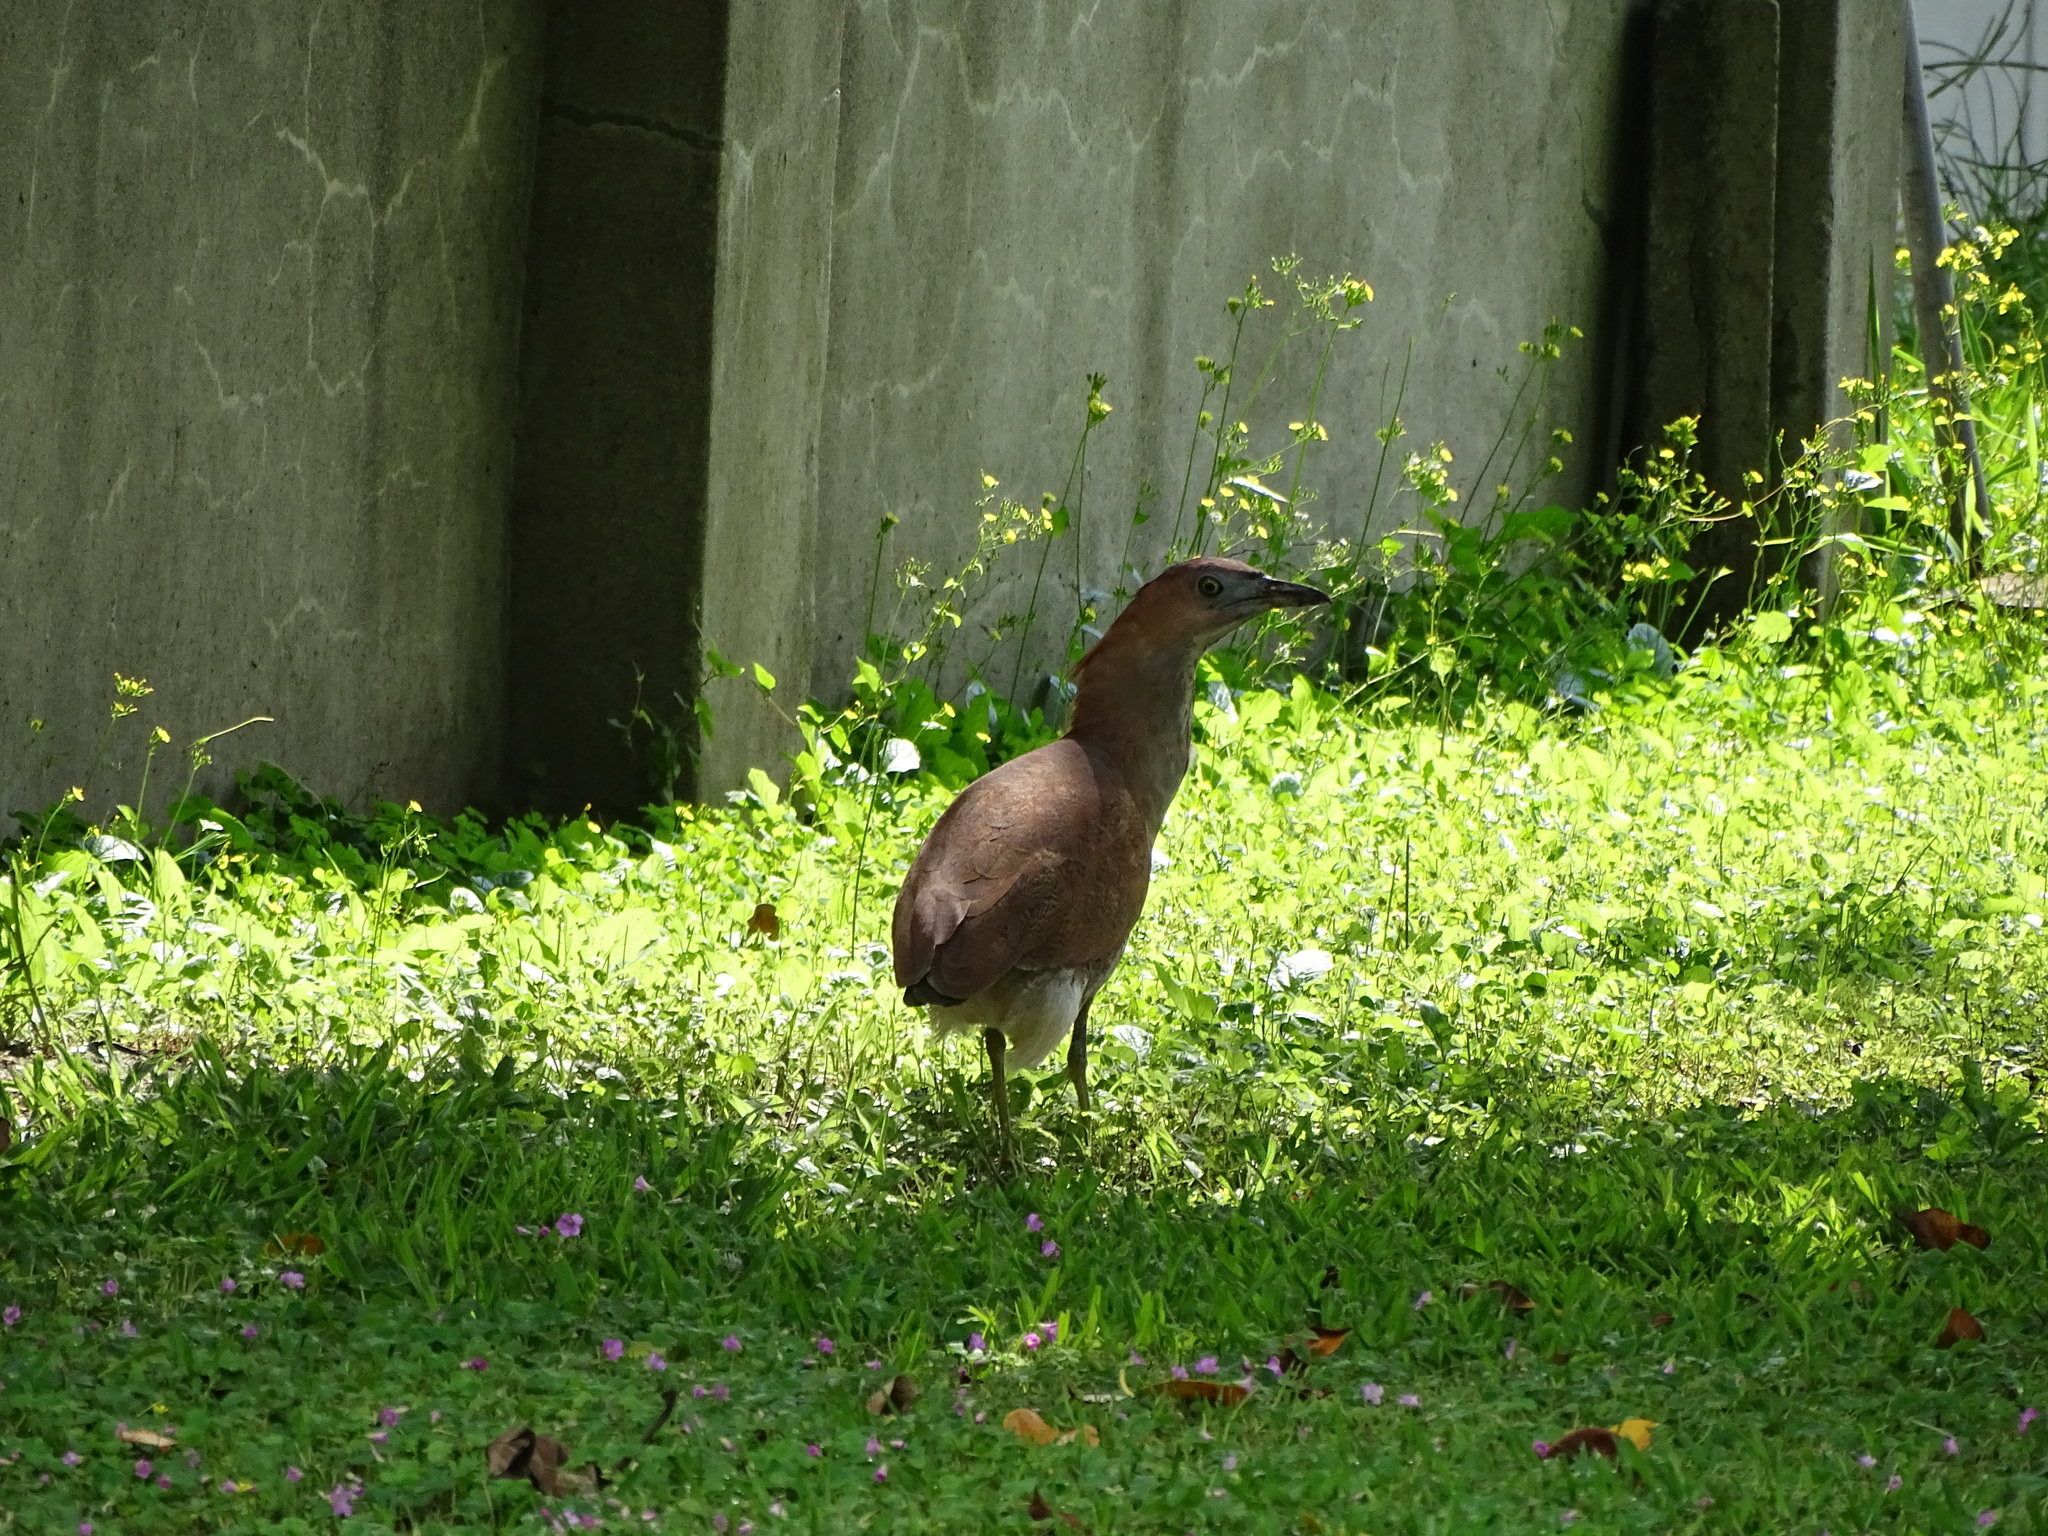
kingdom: Animalia
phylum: Chordata
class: Aves
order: Pelecaniformes
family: Ardeidae
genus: Gorsachius
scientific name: Gorsachius melanolophus
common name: Malayan night heron
